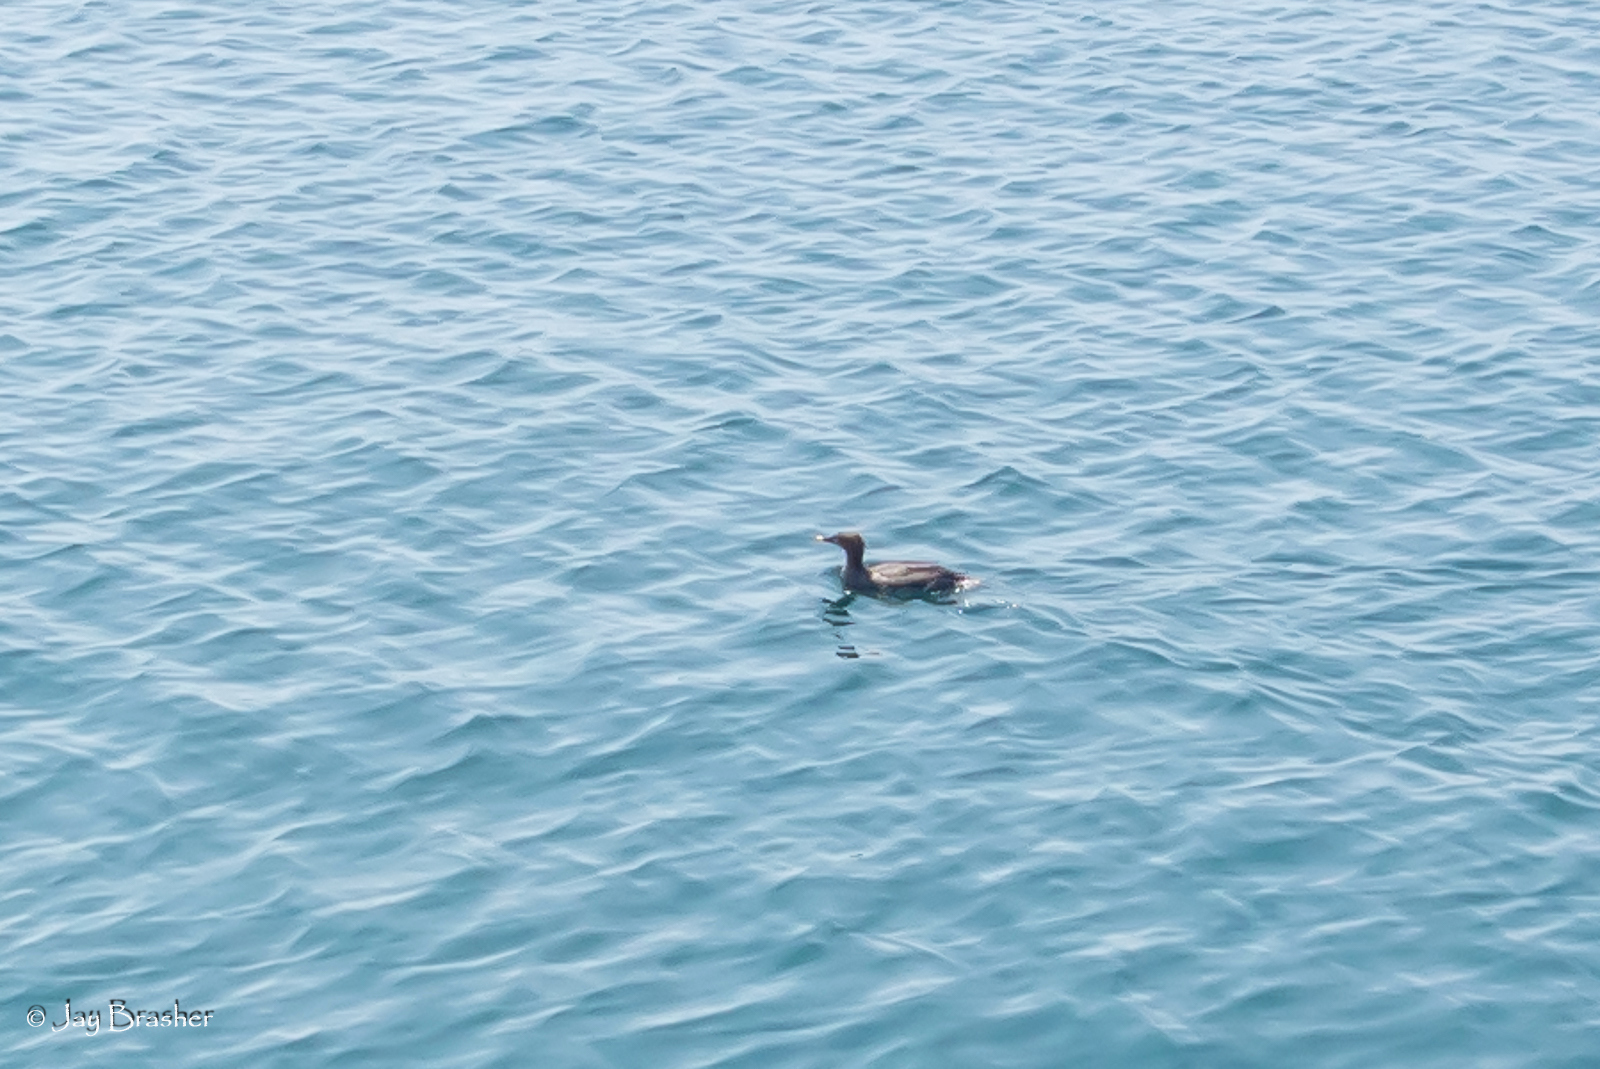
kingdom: Animalia
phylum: Chordata
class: Aves
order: Anseriformes
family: Anatidae
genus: Mergus
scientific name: Mergus serrator
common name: Red-breasted merganser
